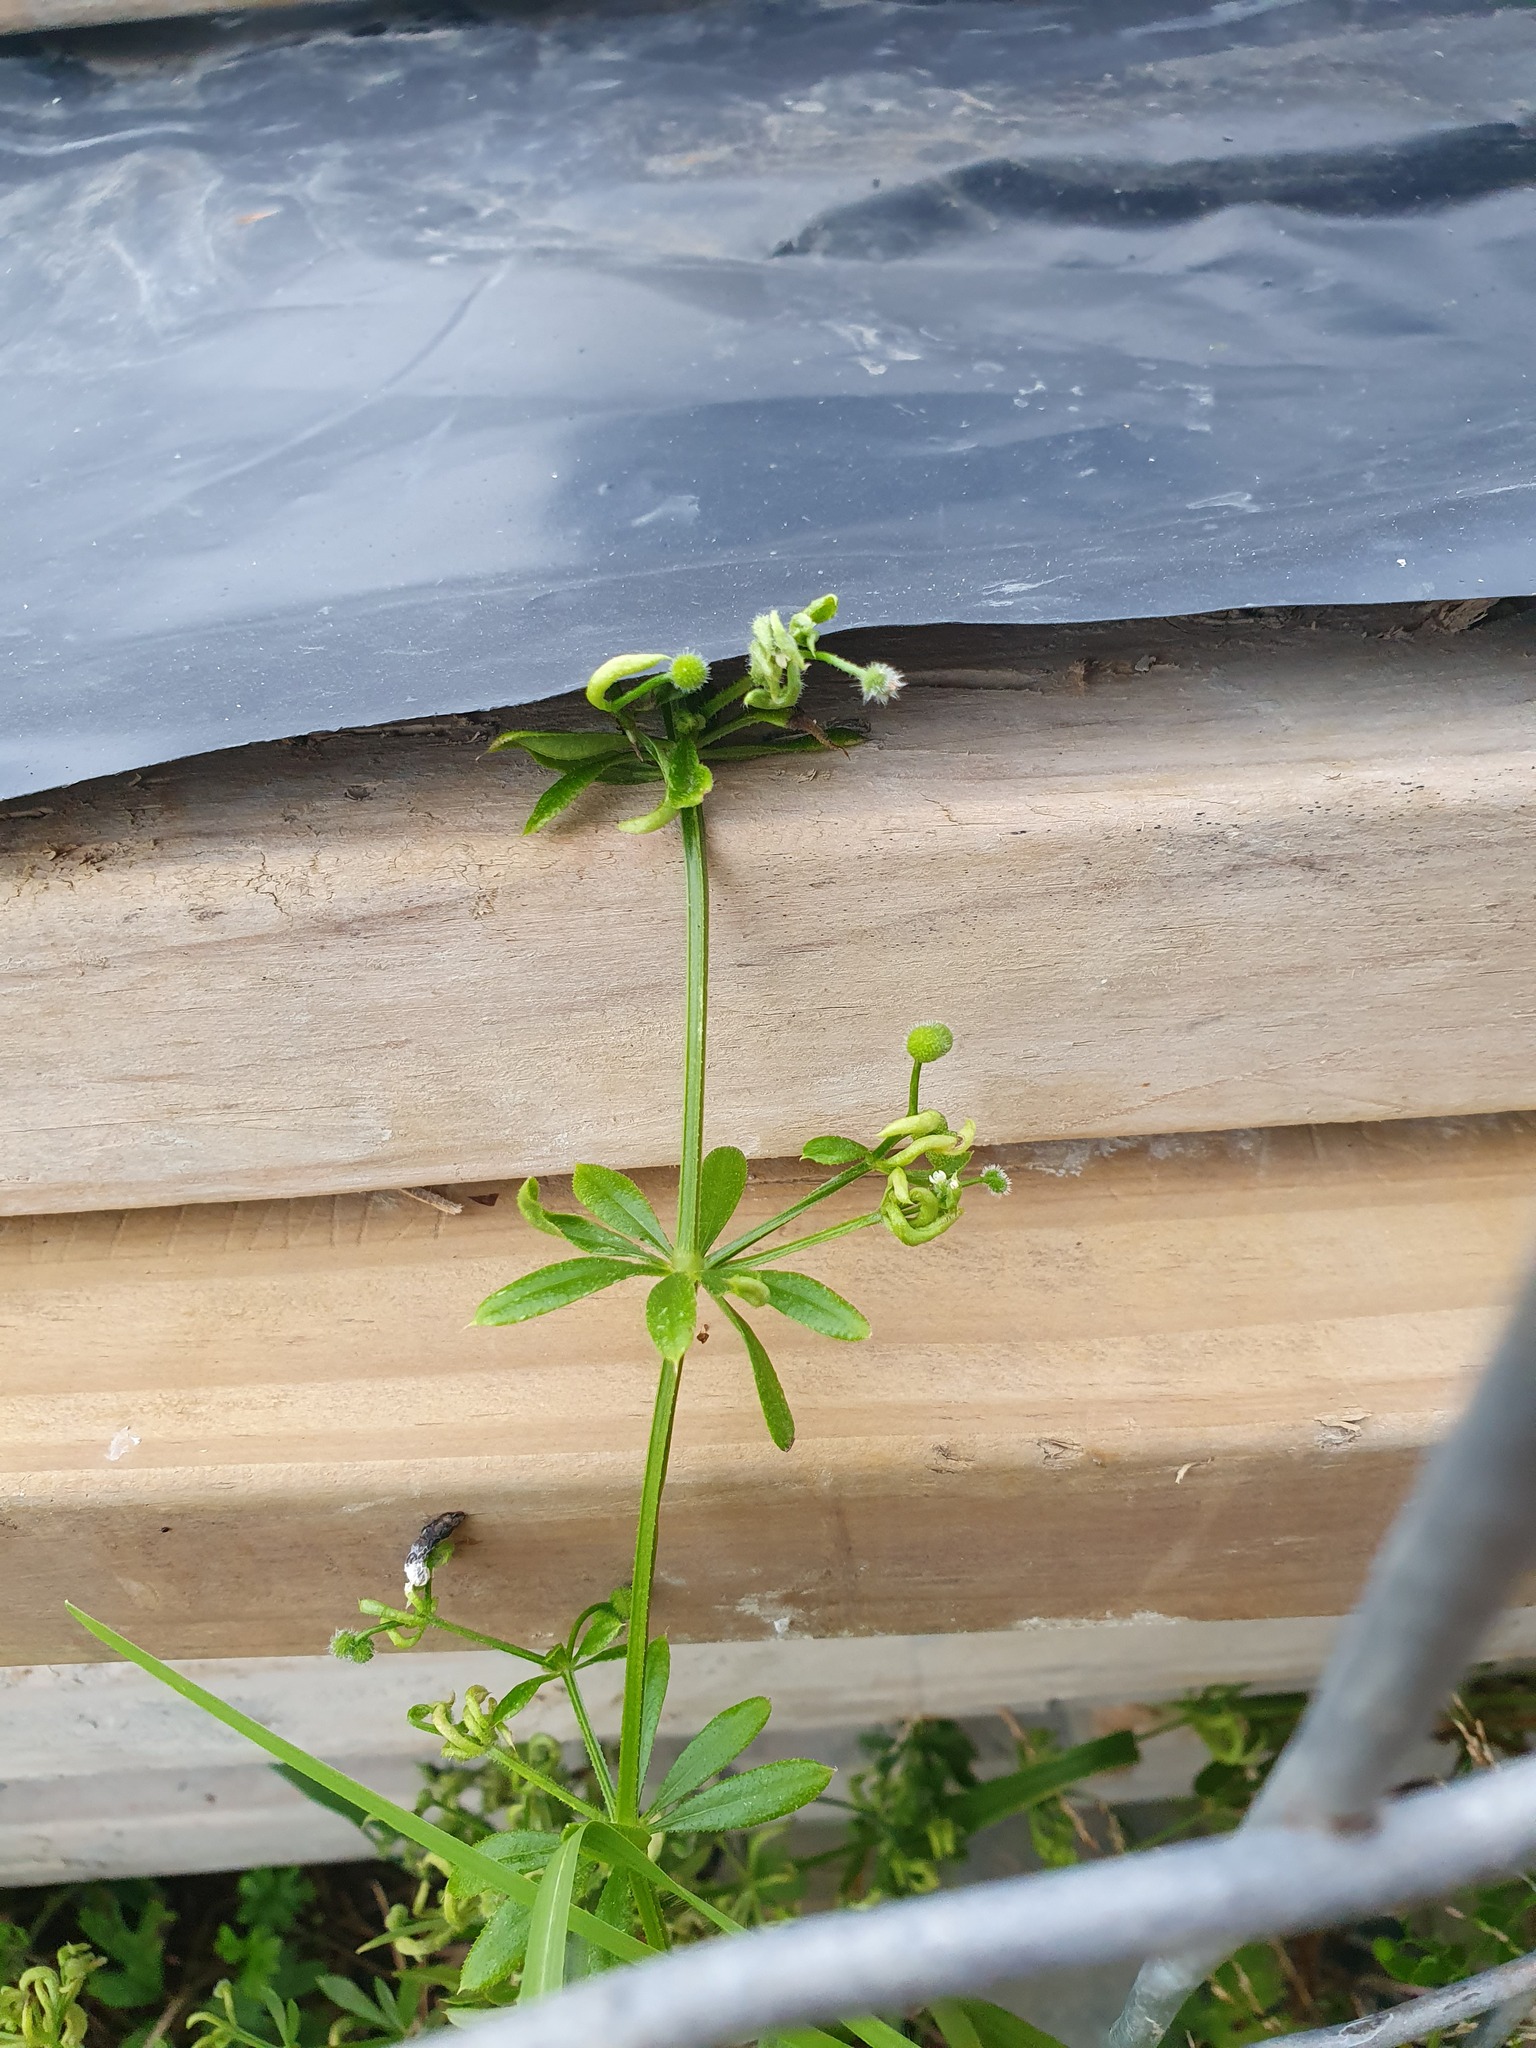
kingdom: Plantae
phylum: Tracheophyta
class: Magnoliopsida
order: Gentianales
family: Rubiaceae
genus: Galium
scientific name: Galium aparine
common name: Cleavers
